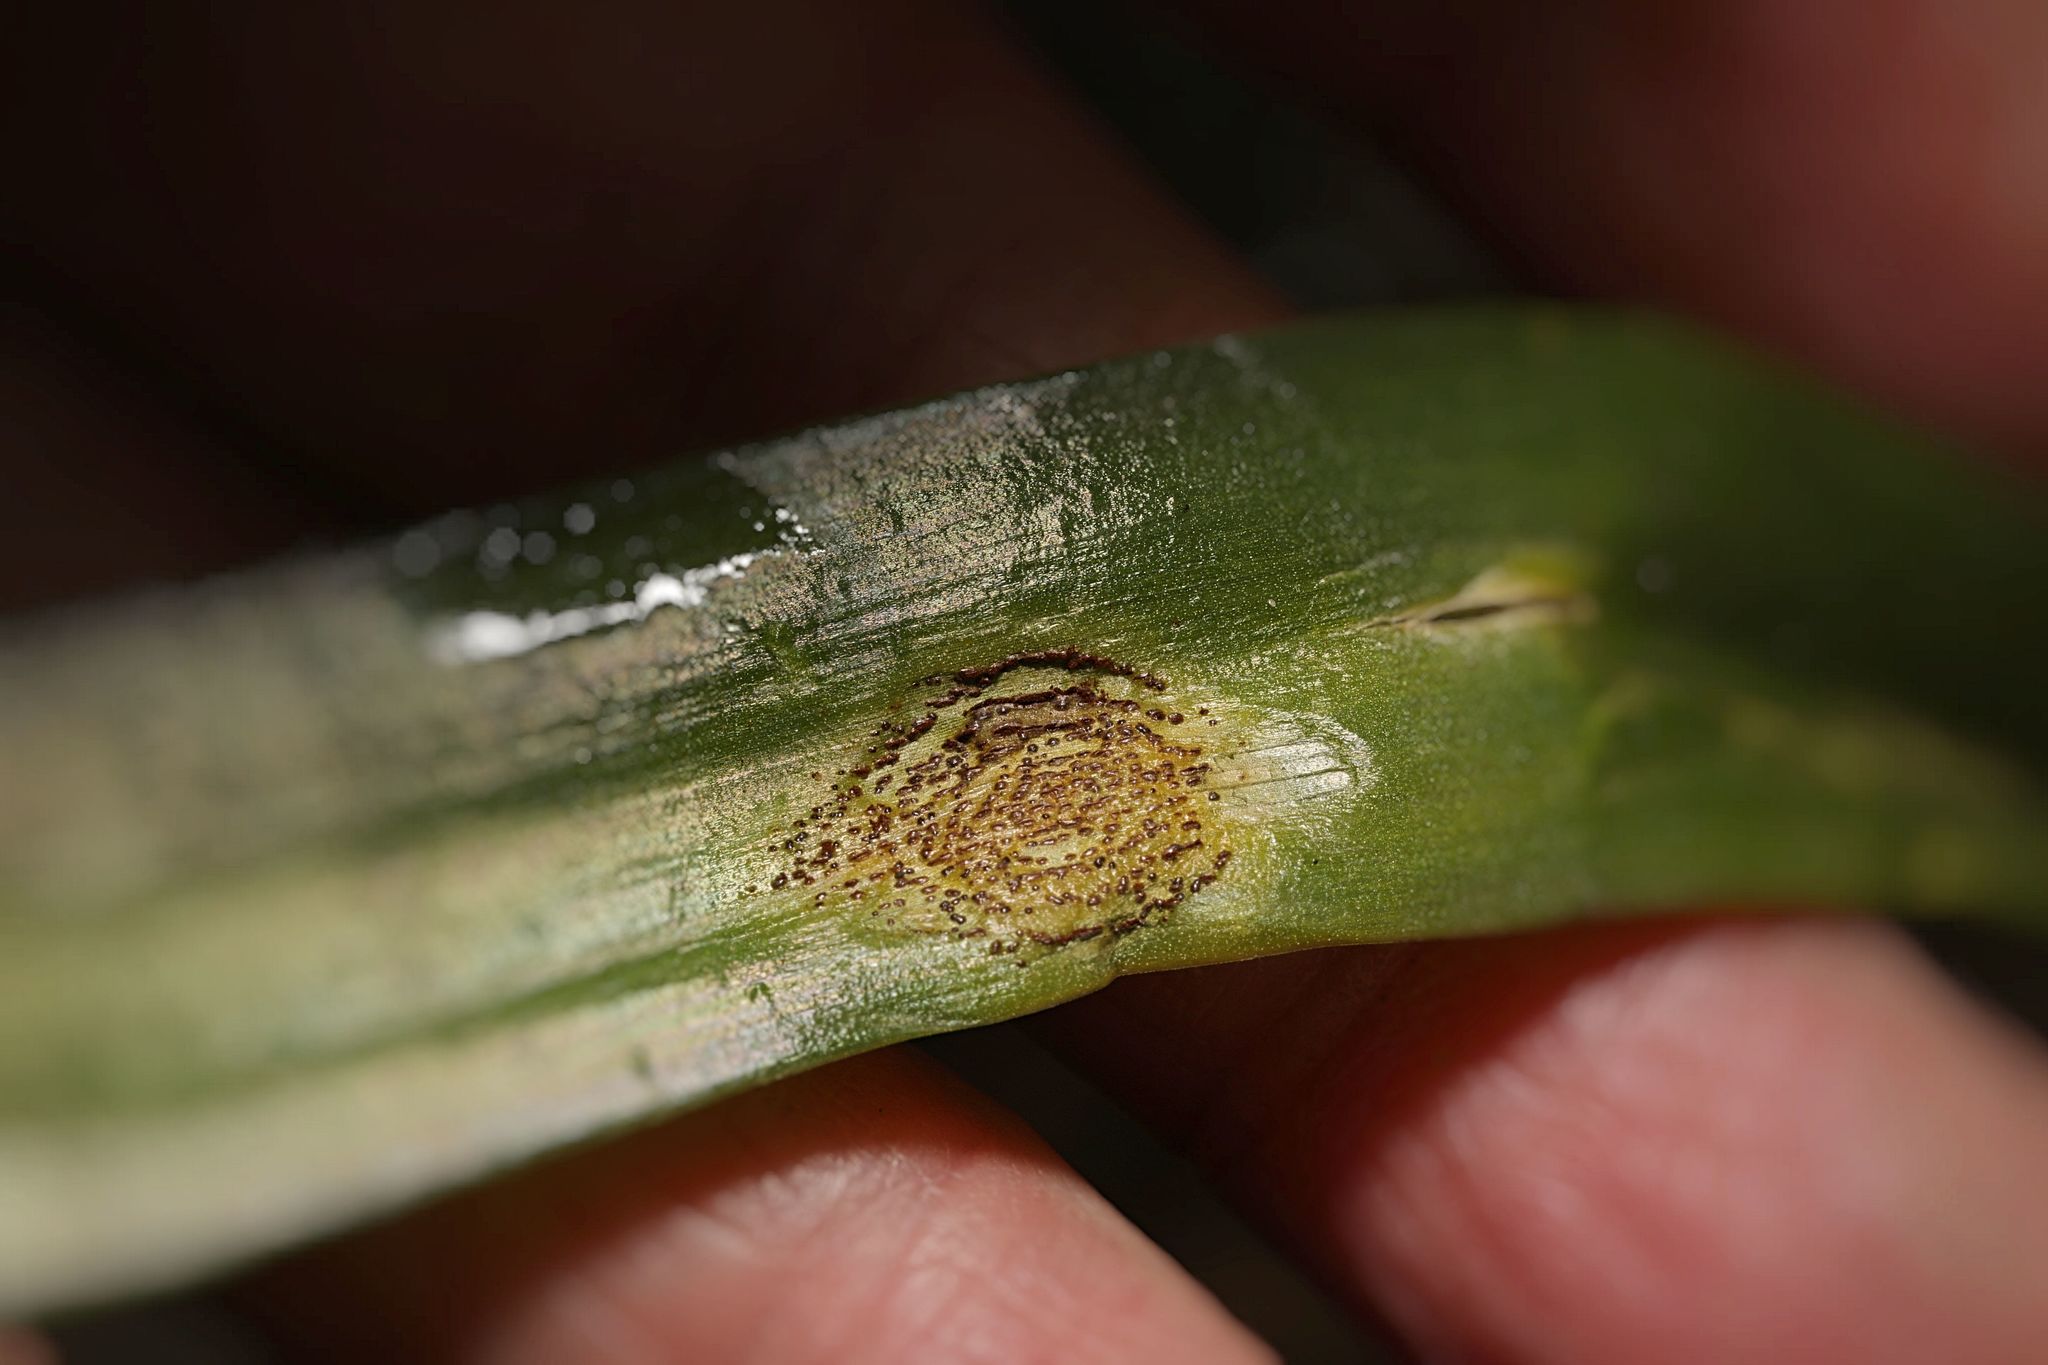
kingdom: Fungi
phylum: Basidiomycota
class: Pucciniomycetes
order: Pucciniales
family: Pucciniaceae
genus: Uromyces
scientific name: Uromyces hyacinthi
